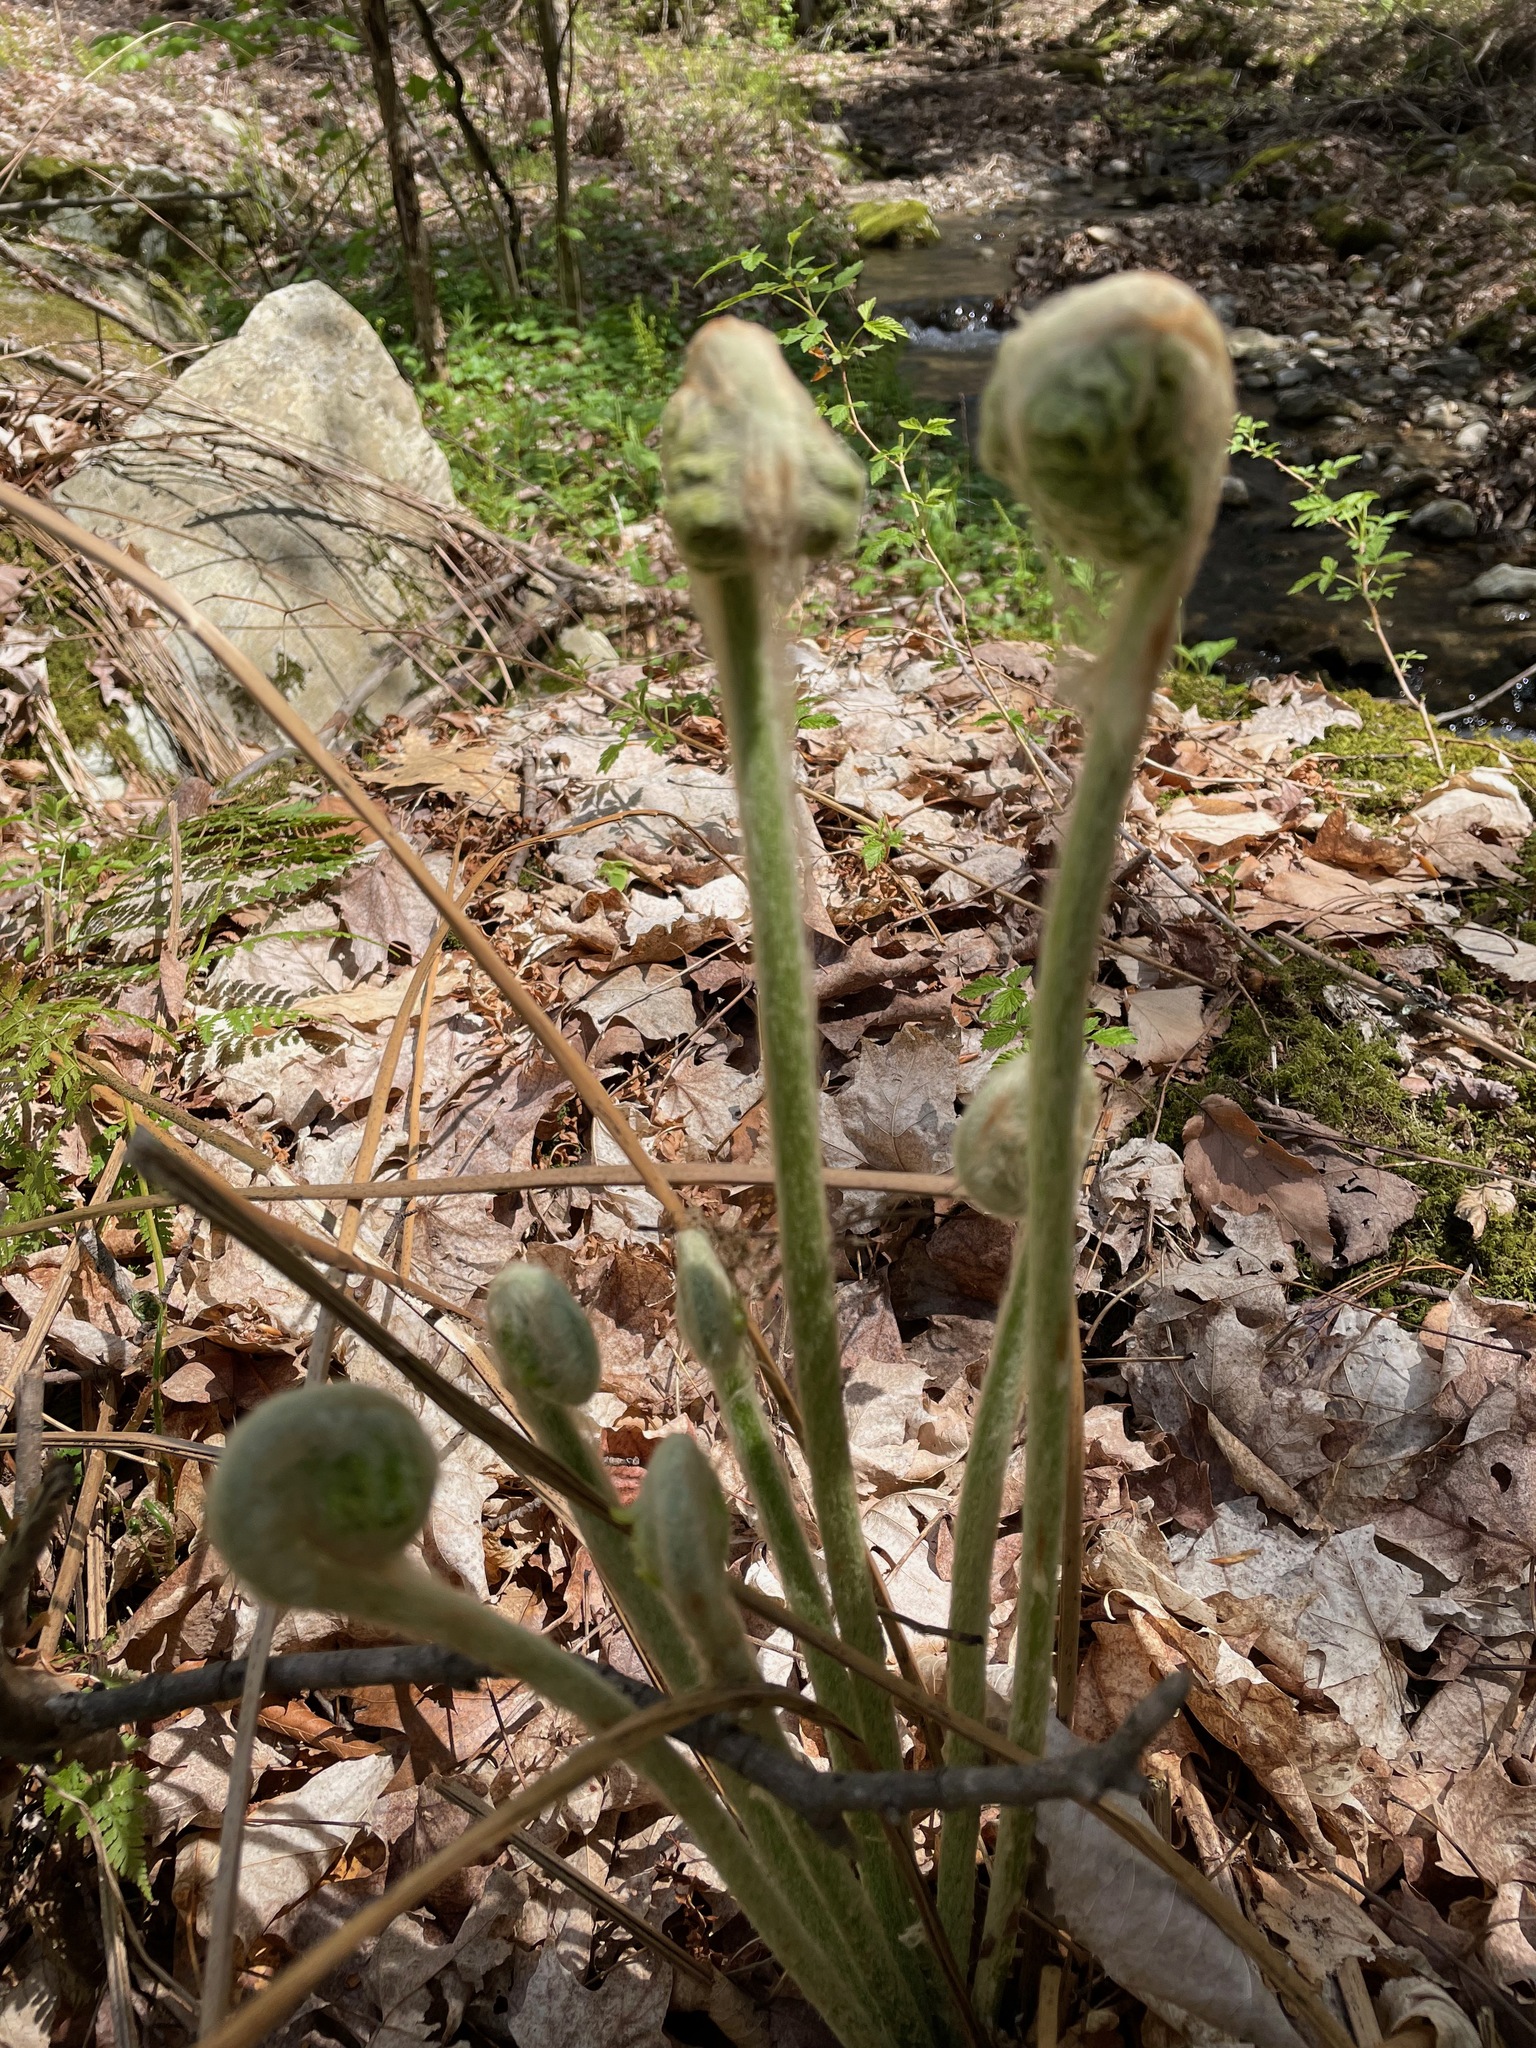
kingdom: Plantae
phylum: Tracheophyta
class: Polypodiopsida
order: Osmundales
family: Osmundaceae
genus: Osmundastrum
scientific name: Osmundastrum cinnamomeum
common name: Cinnamon fern
